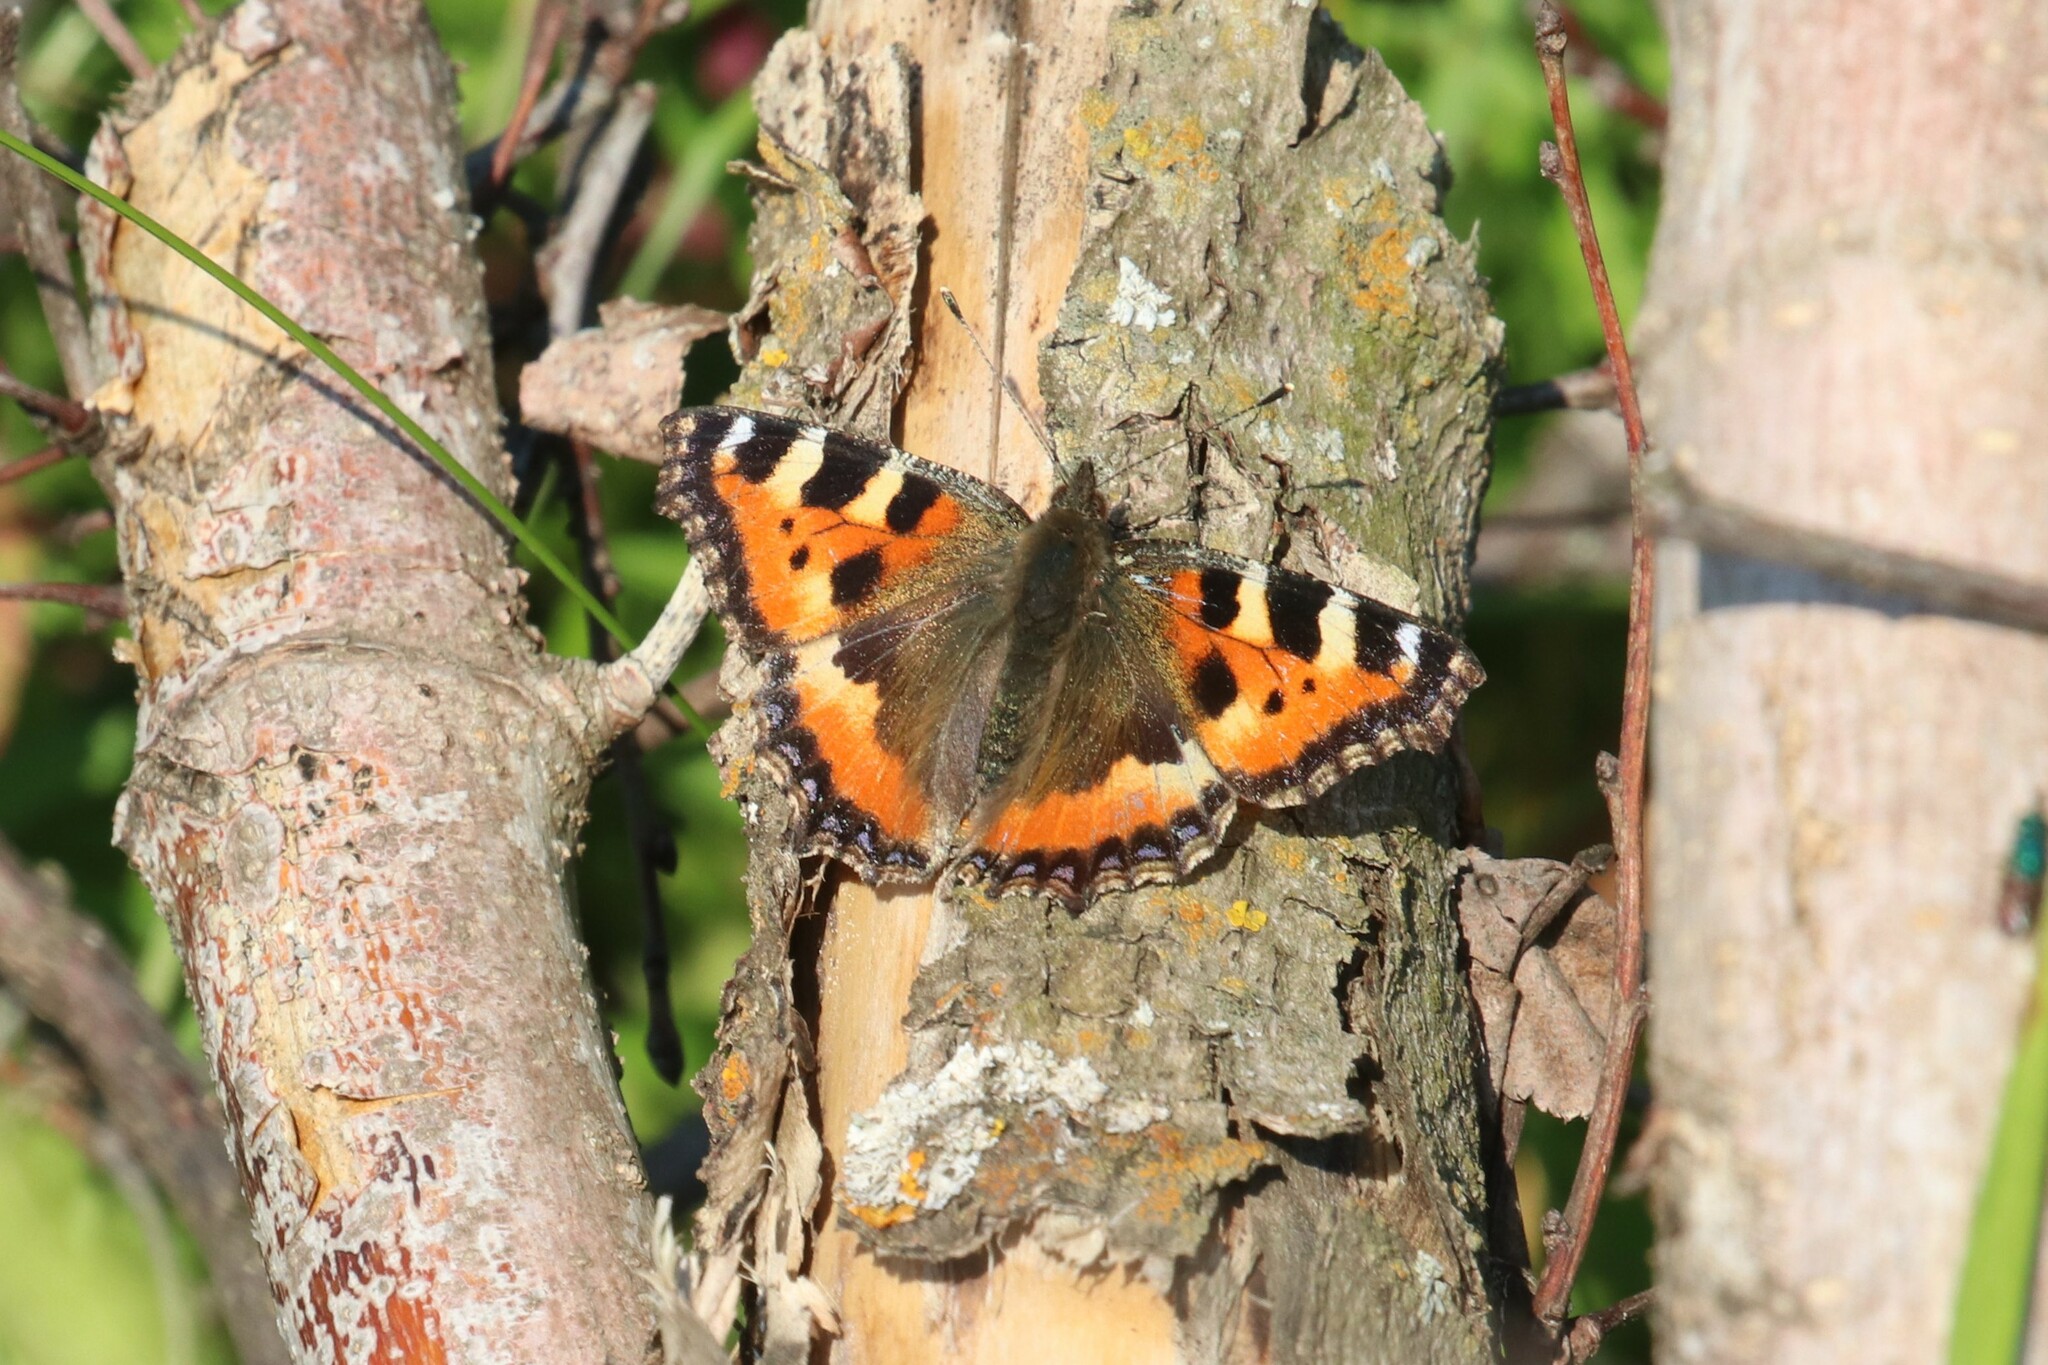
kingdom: Animalia
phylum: Arthropoda
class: Insecta
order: Lepidoptera
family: Nymphalidae
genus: Aglais
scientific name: Aglais urticae
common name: Small tortoiseshell
